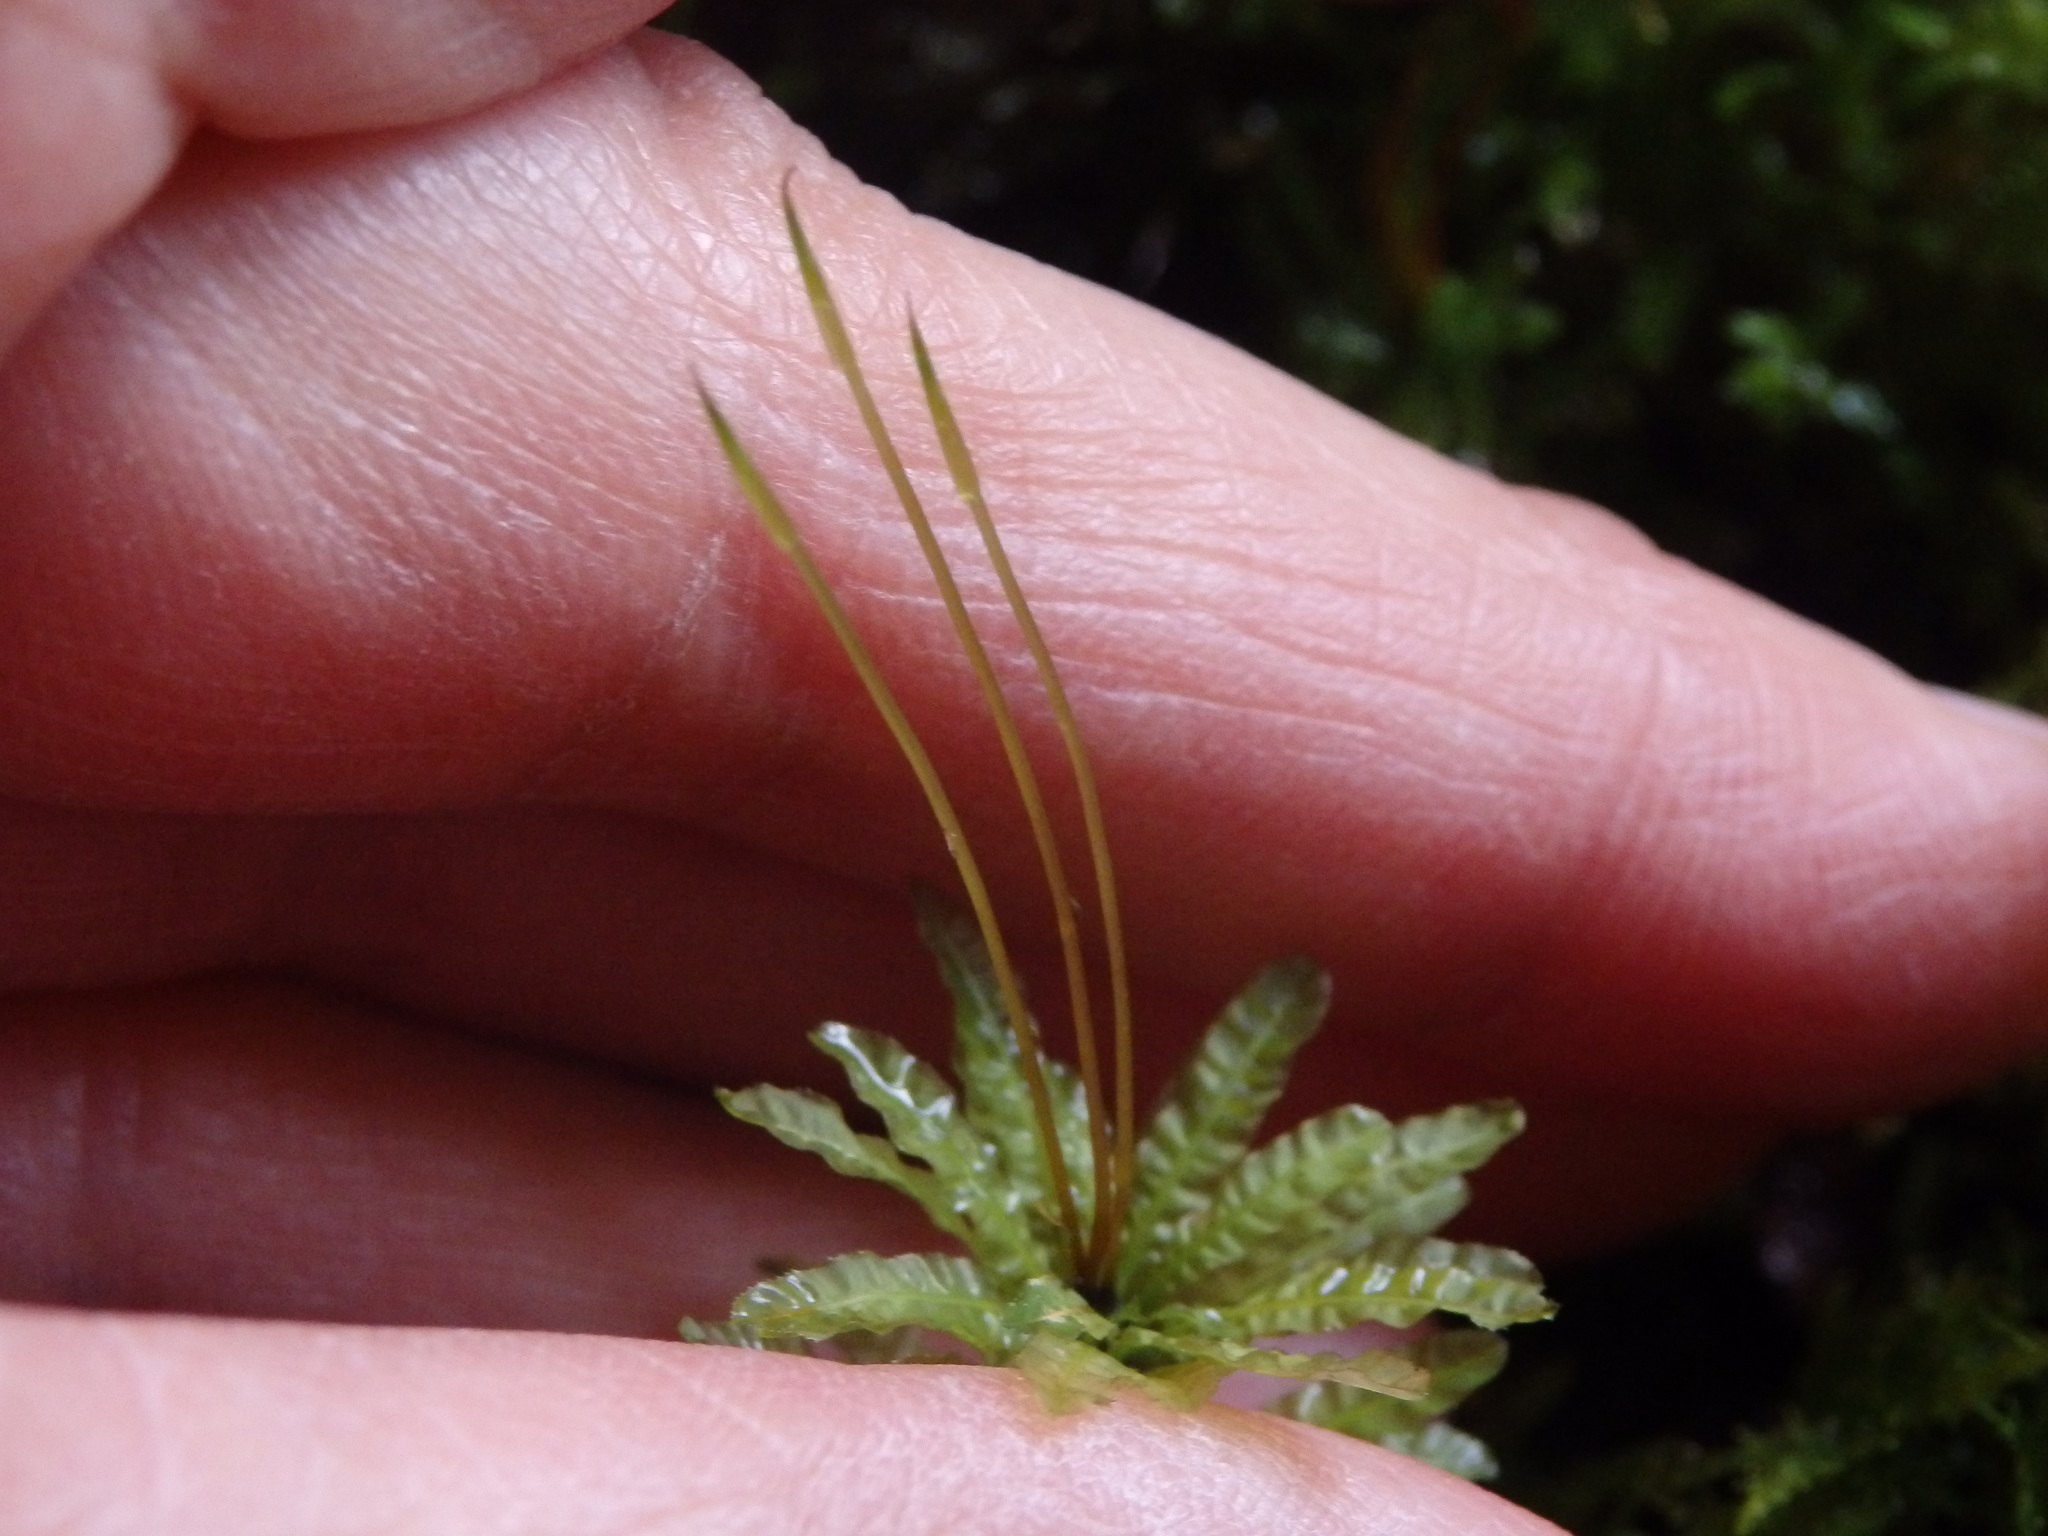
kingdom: Plantae
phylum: Bryophyta
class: Bryopsida
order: Bryales
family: Mniaceae
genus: Plagiomnium
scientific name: Plagiomnium undulatum
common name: Hart's-tongue thyme-moss
